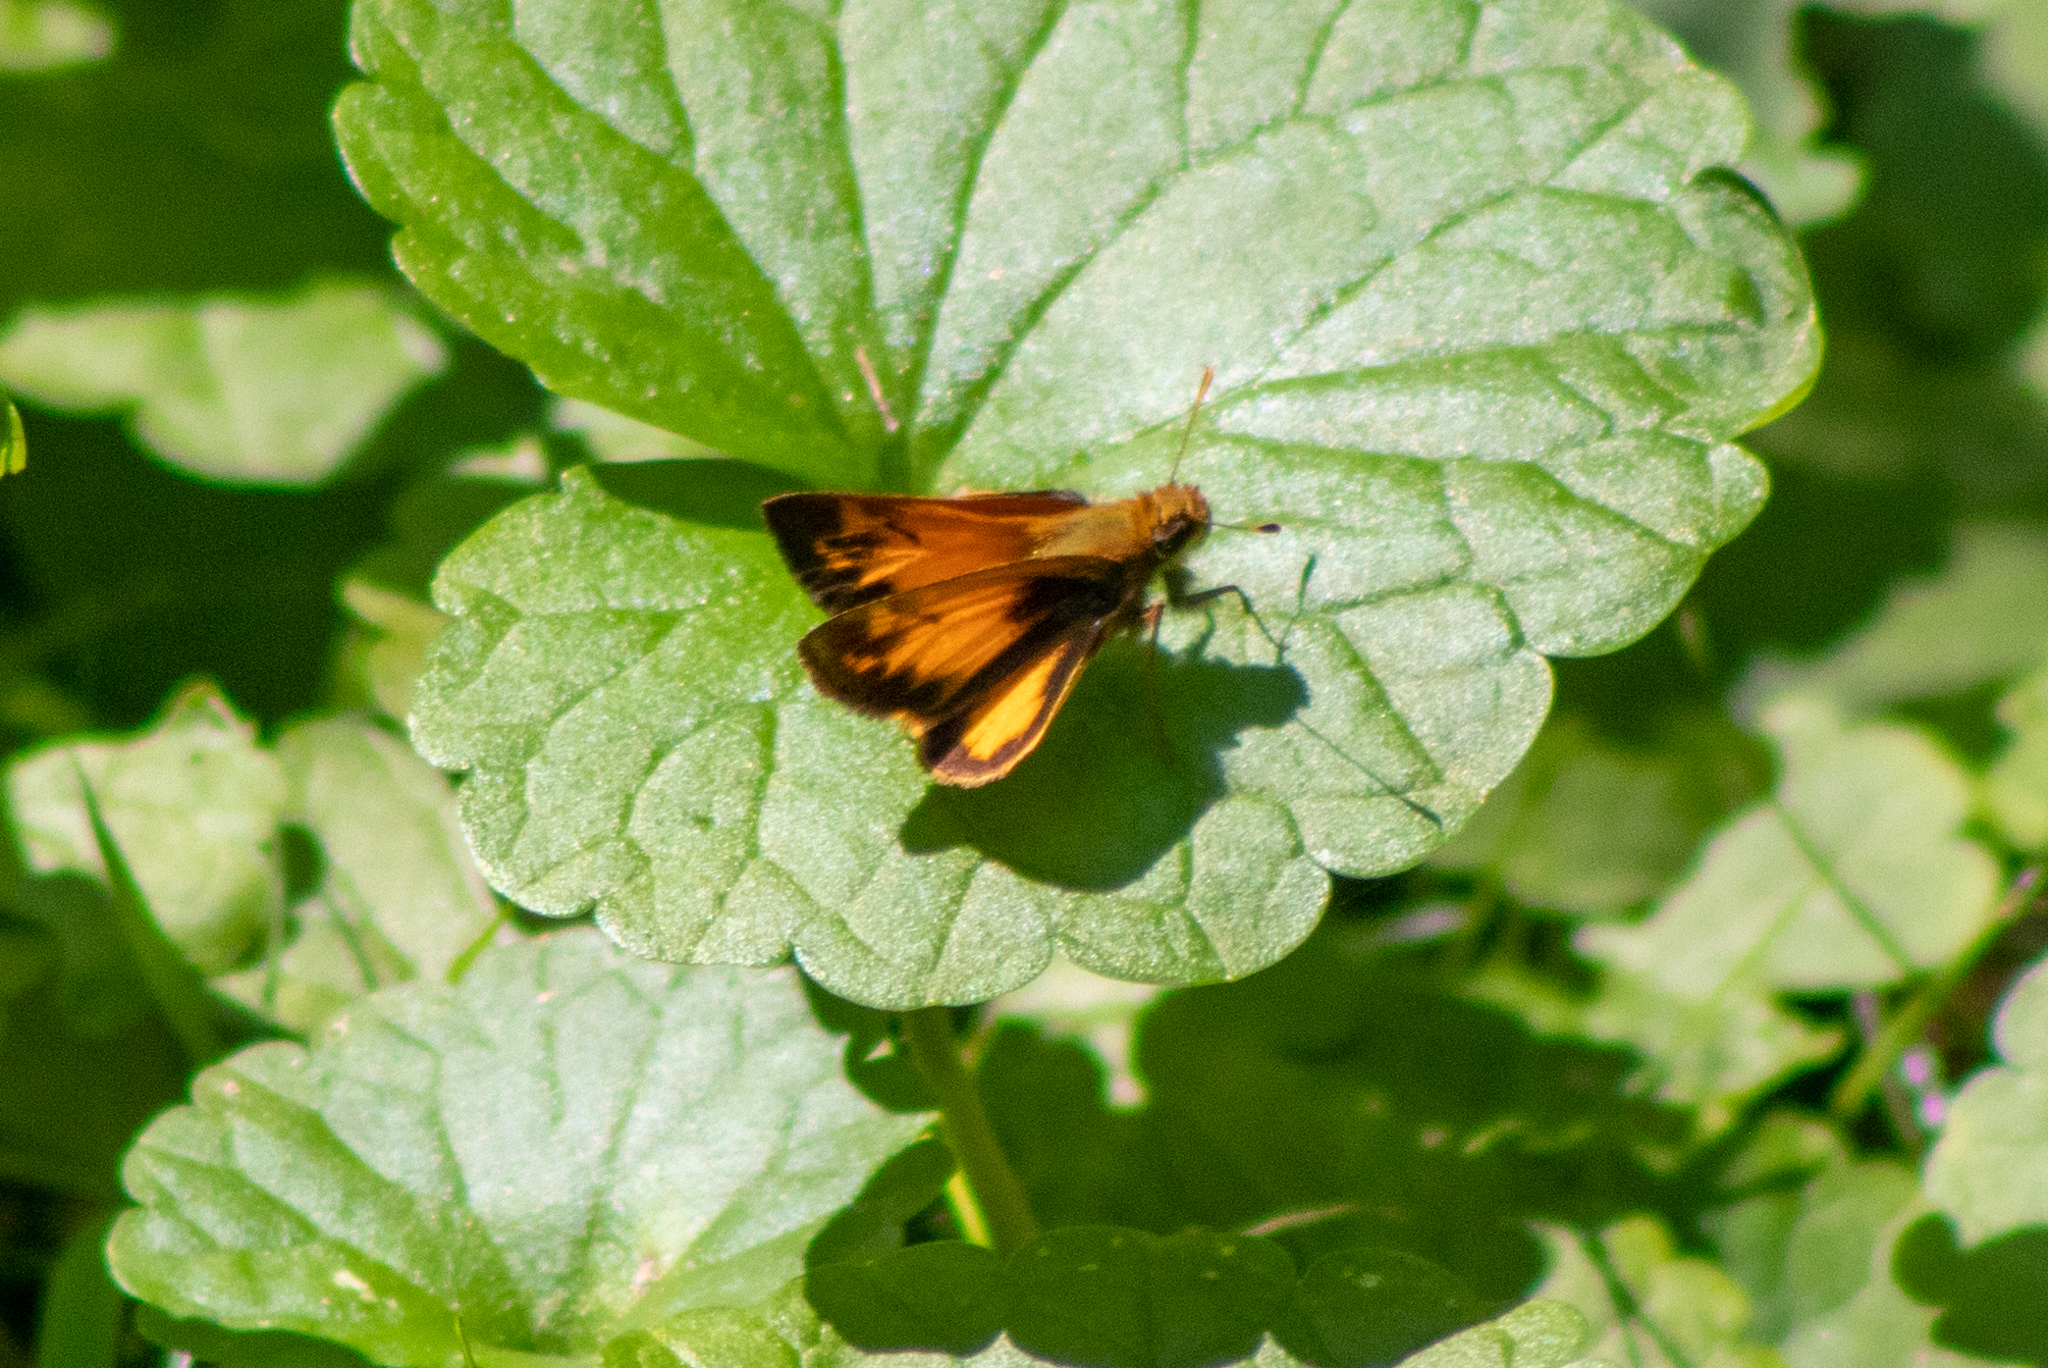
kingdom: Animalia
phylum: Arthropoda
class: Insecta
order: Lepidoptera
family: Hesperiidae
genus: Lon
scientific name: Lon zabulon
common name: Zabulon skipper
